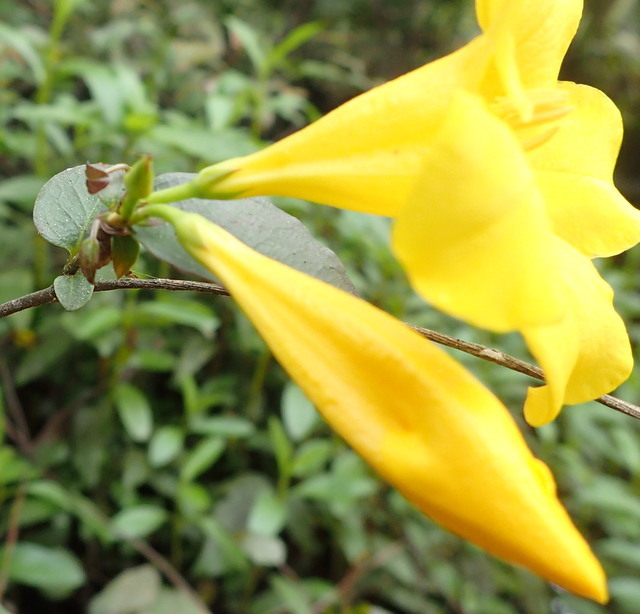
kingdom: Plantae
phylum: Tracheophyta
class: Magnoliopsida
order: Gentianales
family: Gelsemiaceae
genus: Gelsemium
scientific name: Gelsemium rankinii
